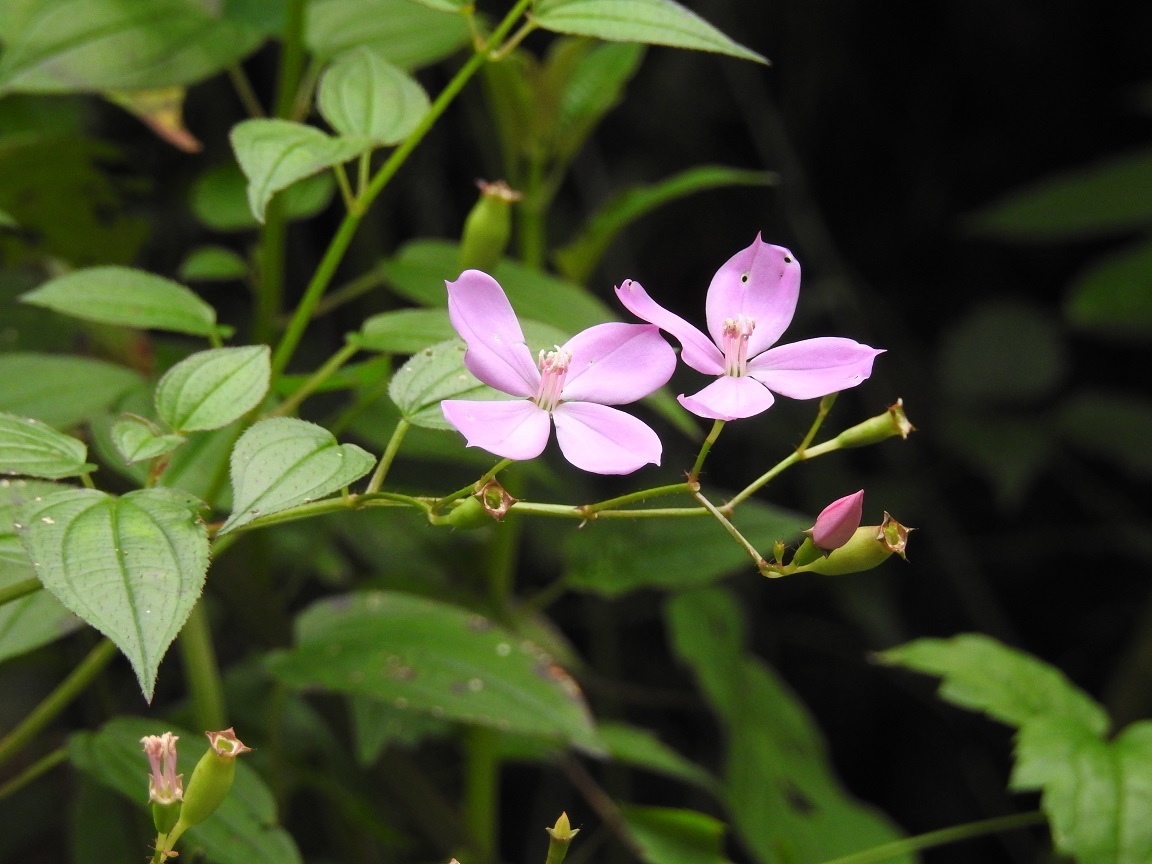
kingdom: Plantae
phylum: Tracheophyta
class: Magnoliopsida
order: Myrtales
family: Melastomataceae
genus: Arthrostemma
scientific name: Arthrostemma ciliatum
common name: Everblooming eavender
